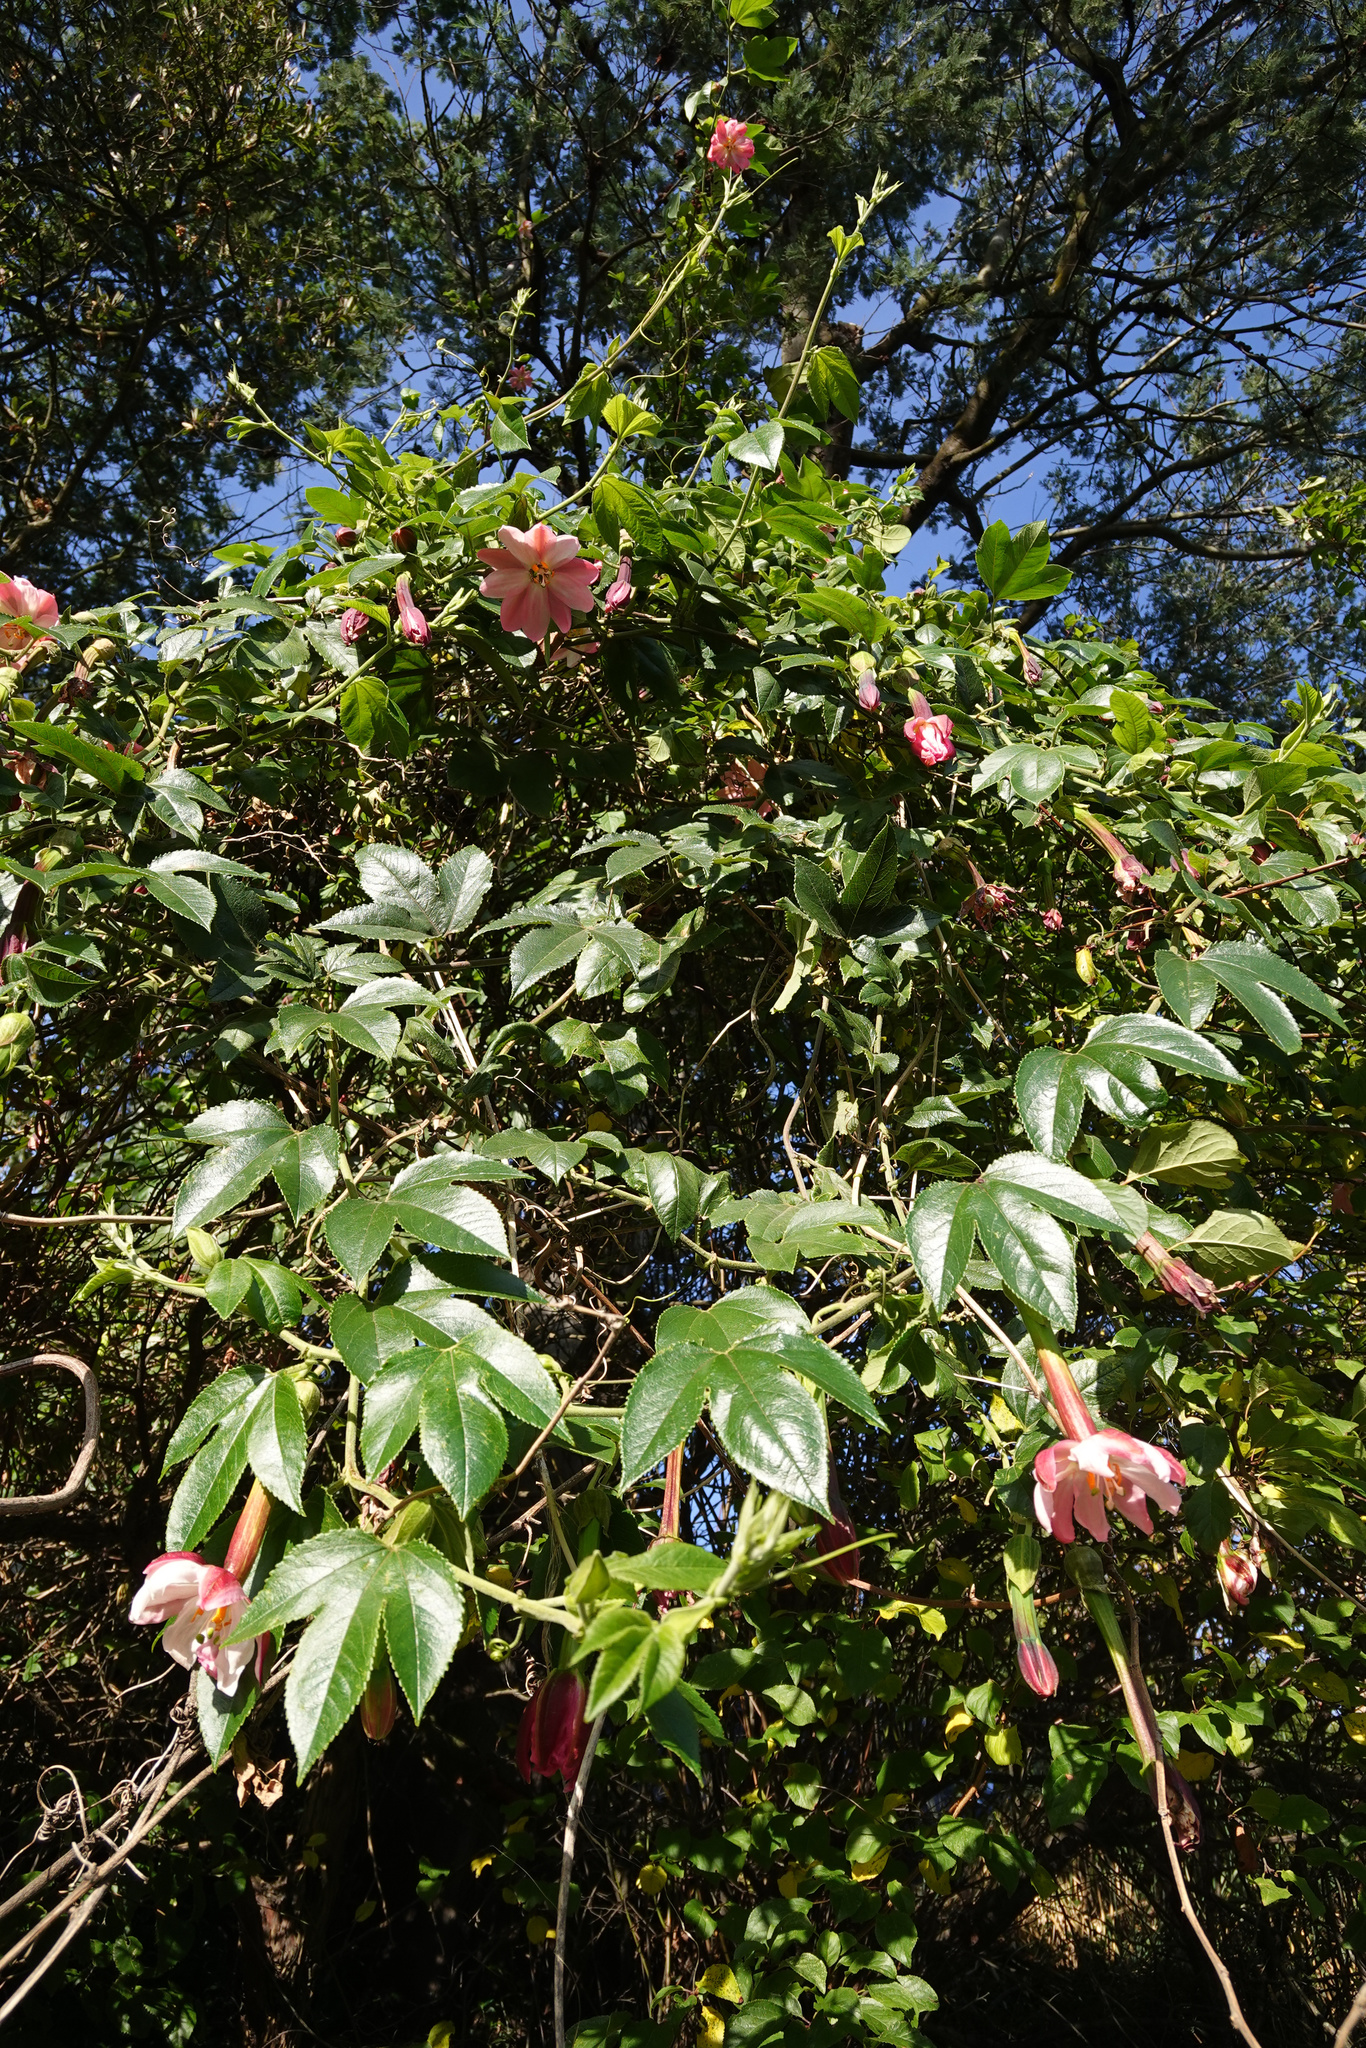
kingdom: Plantae
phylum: Tracheophyta
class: Magnoliopsida
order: Malpighiales
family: Passifloraceae
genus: Passiflora
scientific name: Passiflora tripartita
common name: Banana poka
